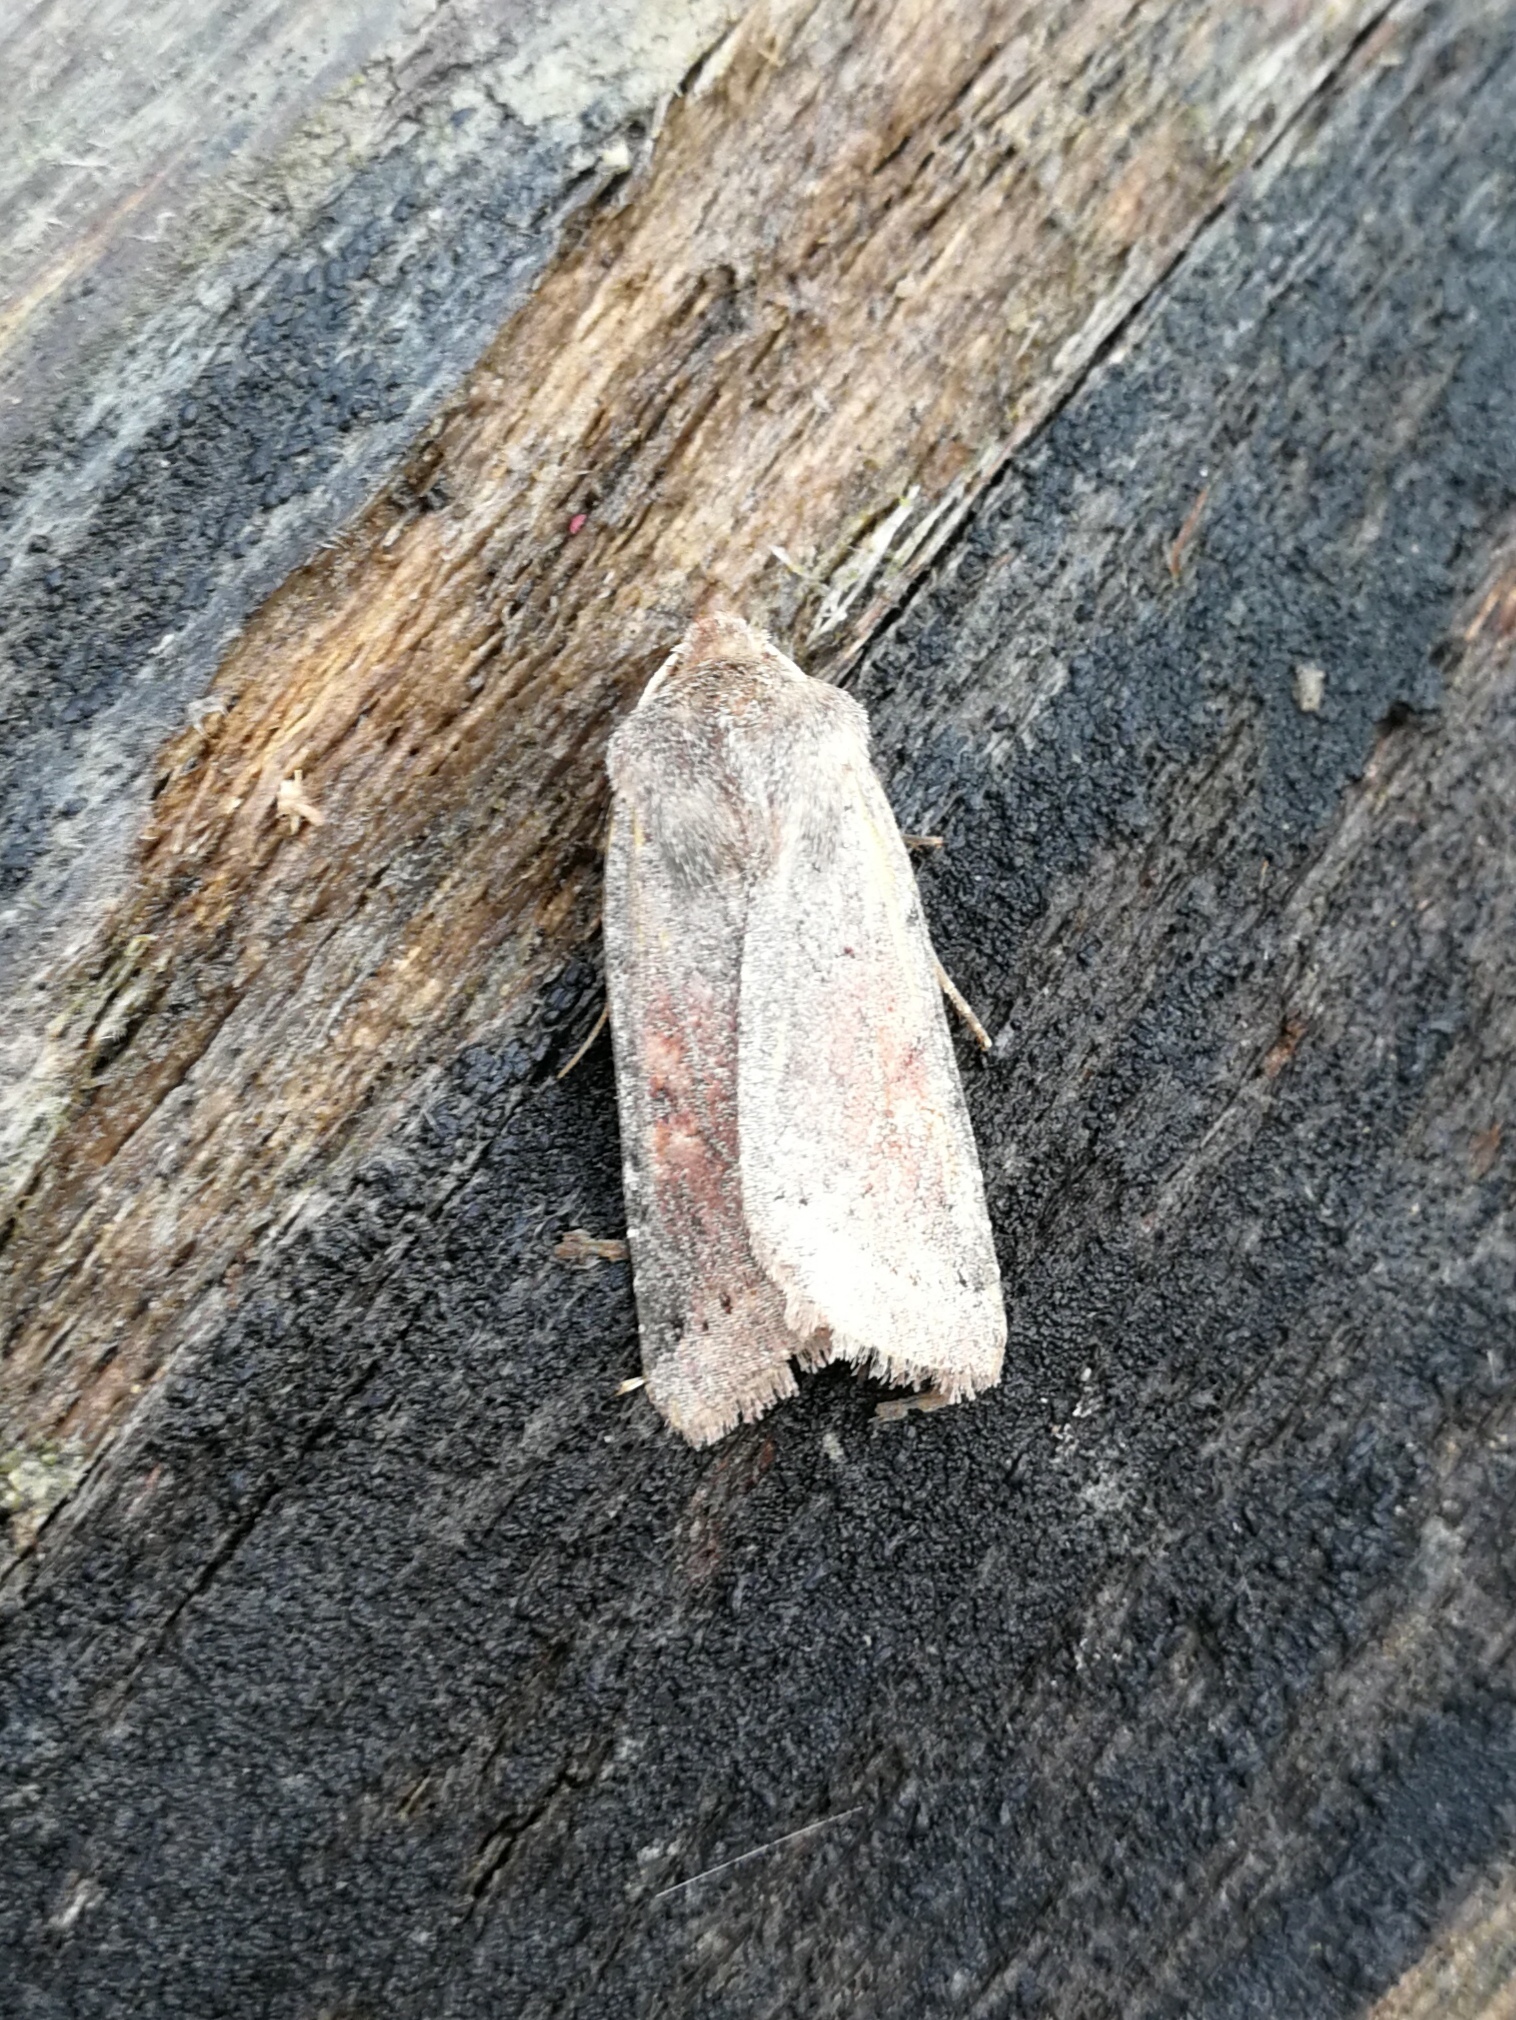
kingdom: Animalia
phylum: Arthropoda
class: Insecta
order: Lepidoptera
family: Noctuidae
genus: Agrochola
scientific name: Agrochola haematidea
